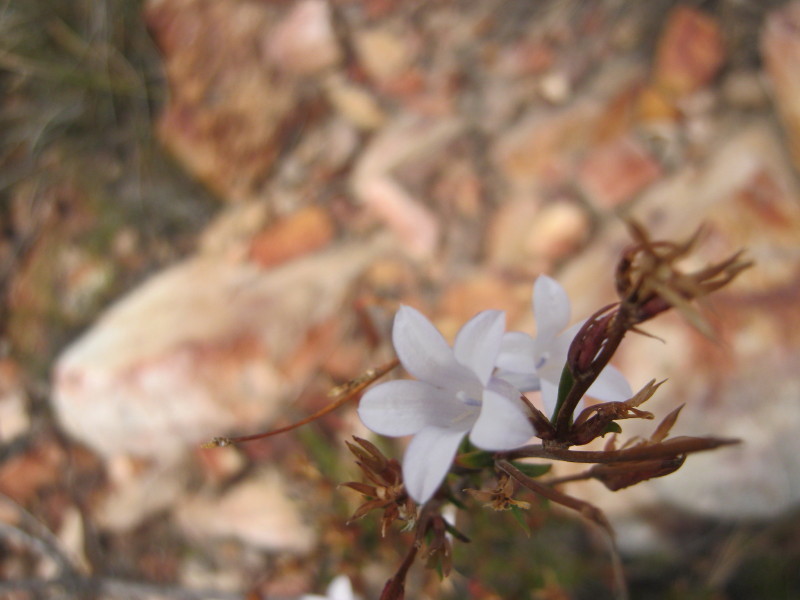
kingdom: Plantae
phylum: Tracheophyta
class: Magnoliopsida
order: Asterales
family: Campanulaceae
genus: Prismatocarpus
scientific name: Prismatocarpus candolleanus
